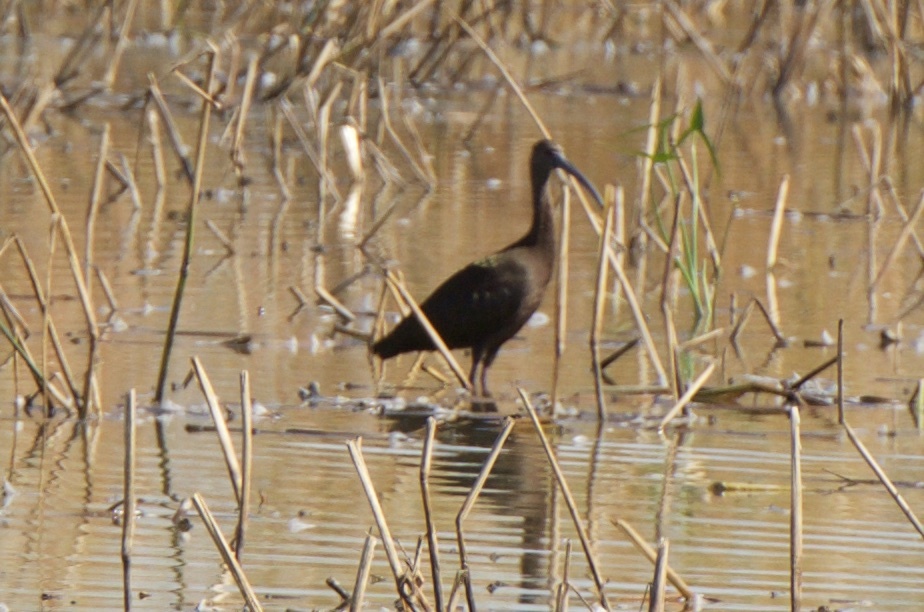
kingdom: Animalia
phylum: Chordata
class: Aves
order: Pelecaniformes
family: Threskiornithidae
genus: Plegadis
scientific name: Plegadis chihi
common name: White-faced ibis
